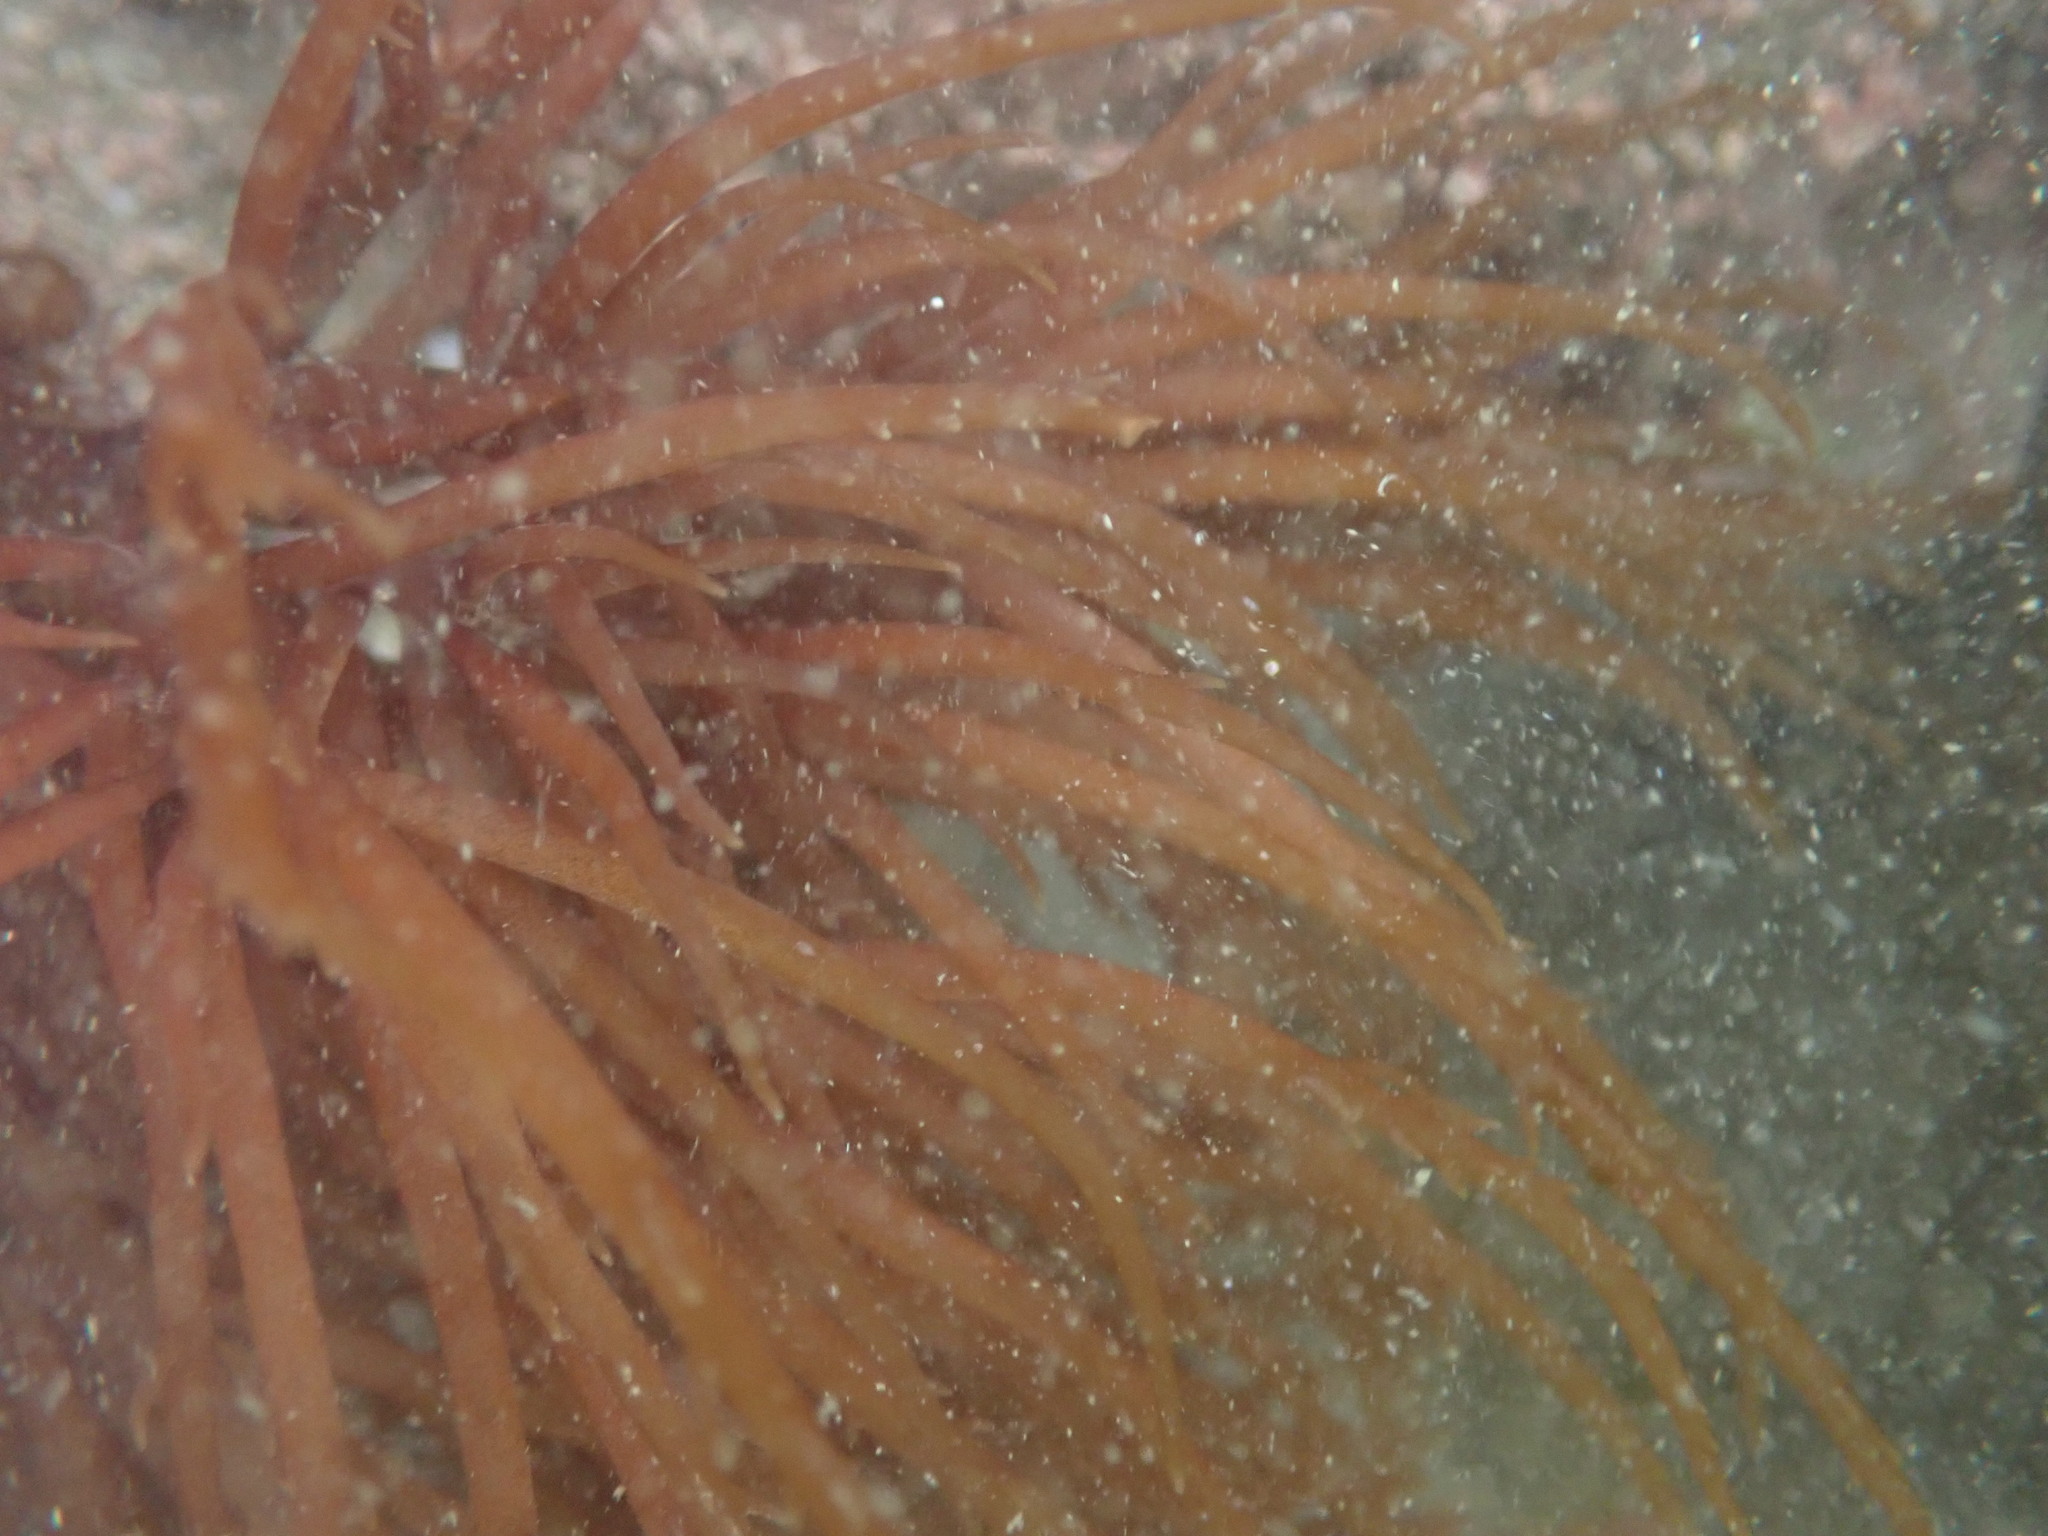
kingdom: Plantae
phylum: Rhodophyta
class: Florideophyceae
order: Gigartinales
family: Solieriaceae
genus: Sarcodiotheca
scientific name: Sarcodiotheca gaudichaudii
